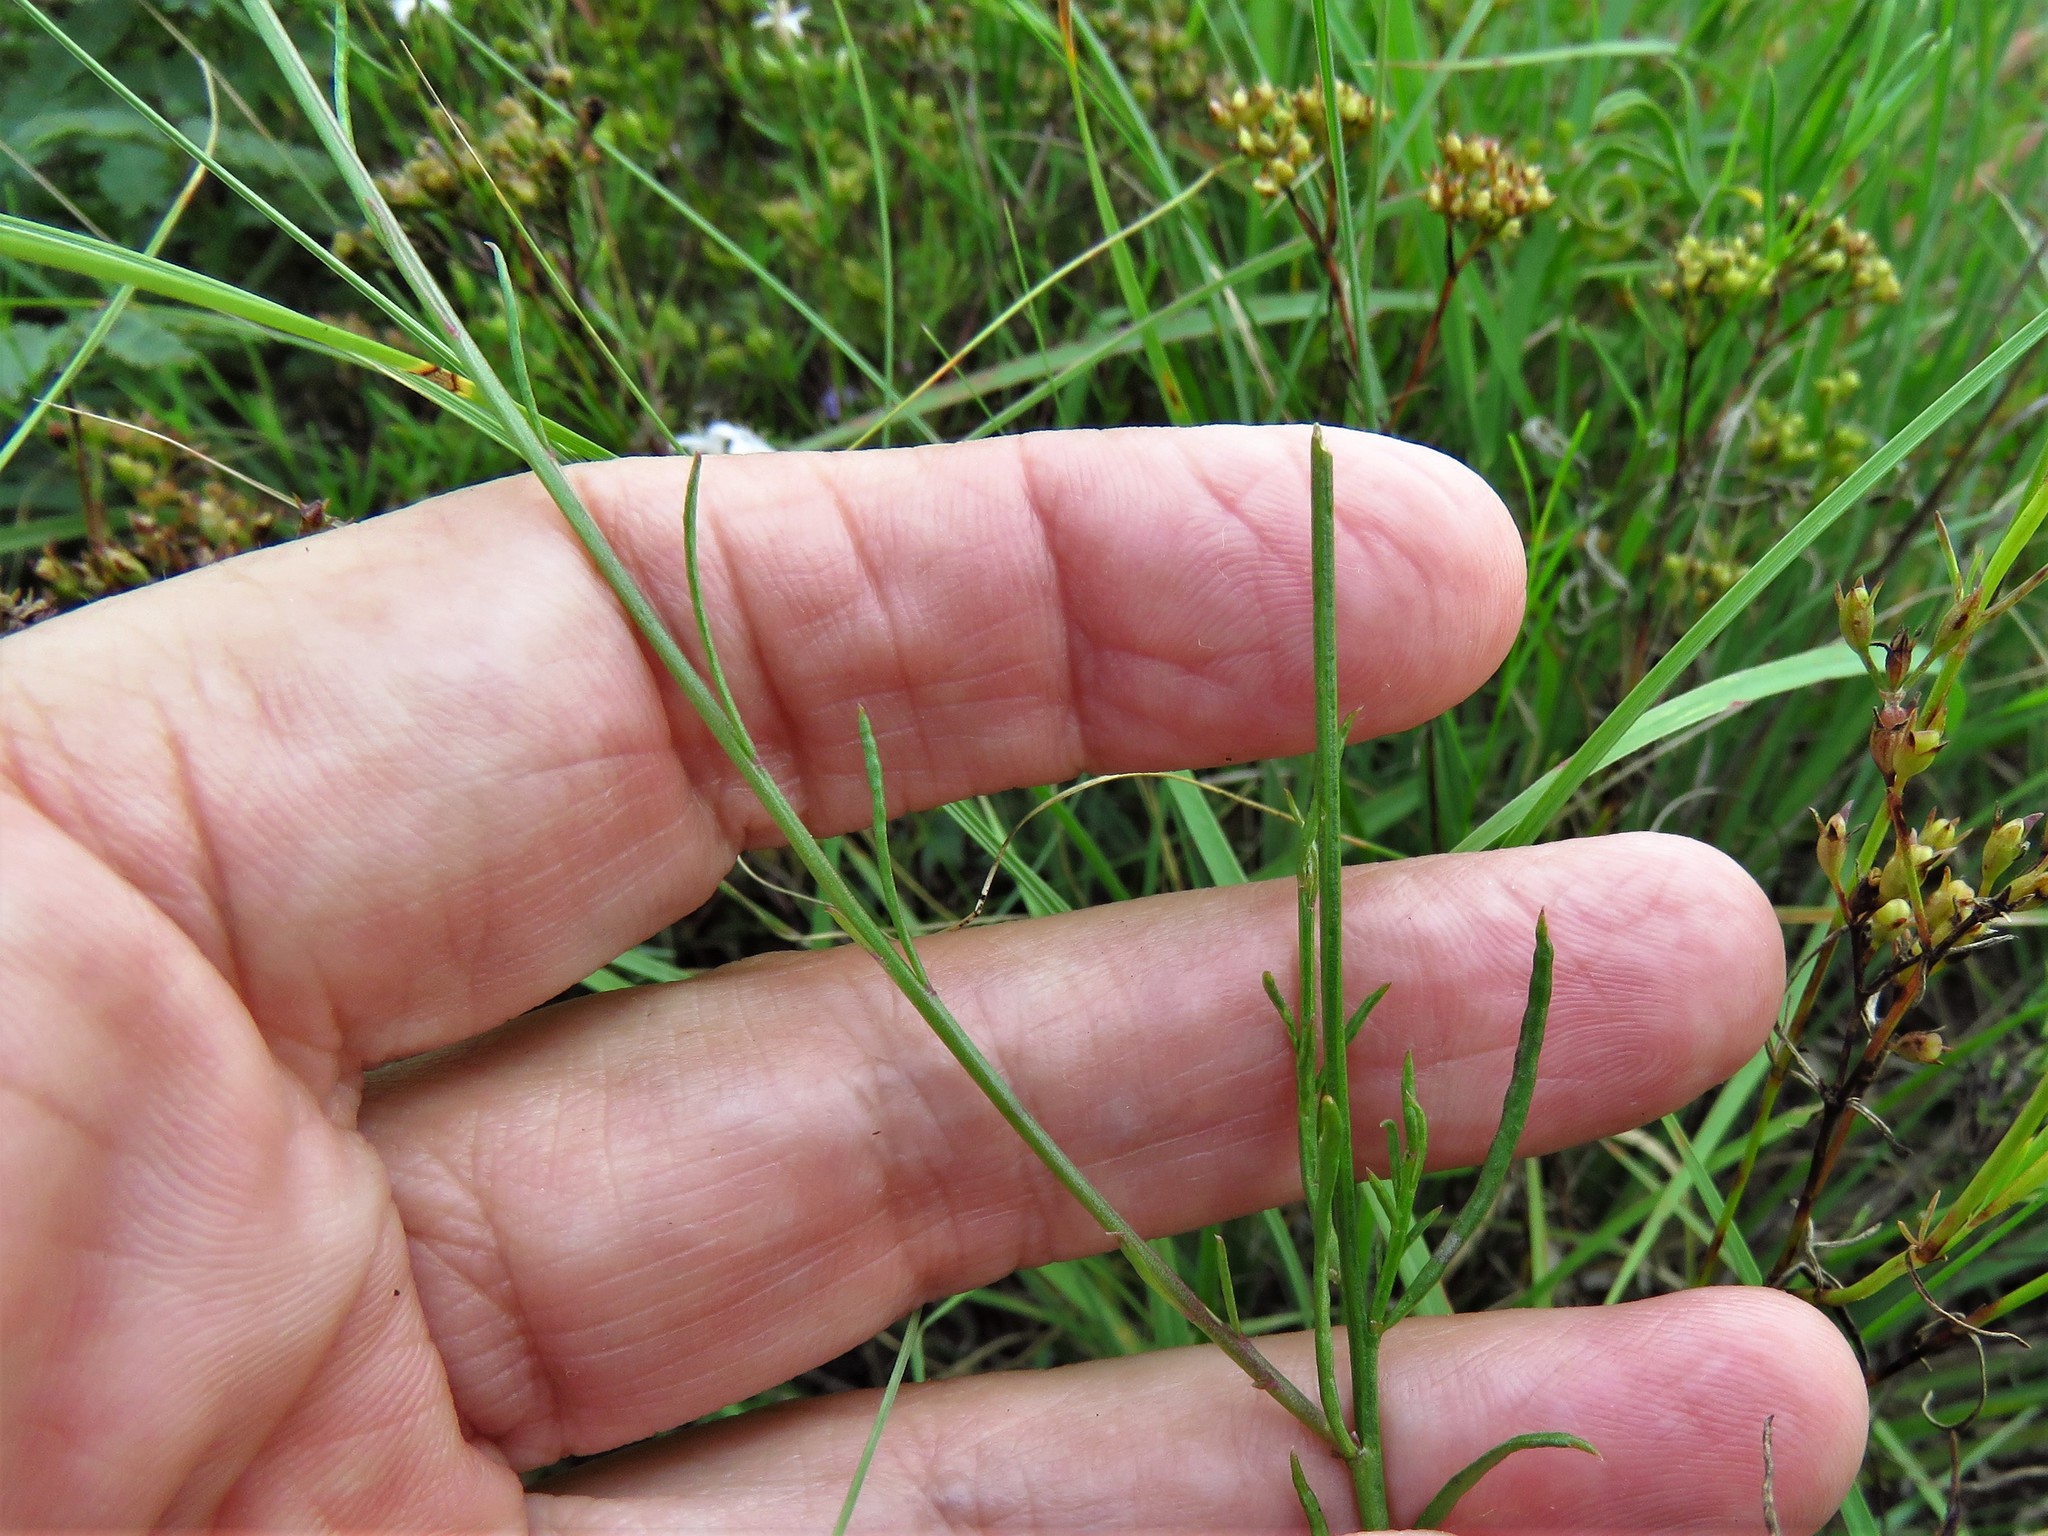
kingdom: Plantae
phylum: Tracheophyta
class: Magnoliopsida
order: Fabales
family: Polygalaceae
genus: Polygala
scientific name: Polygala alba
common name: White milkwort
